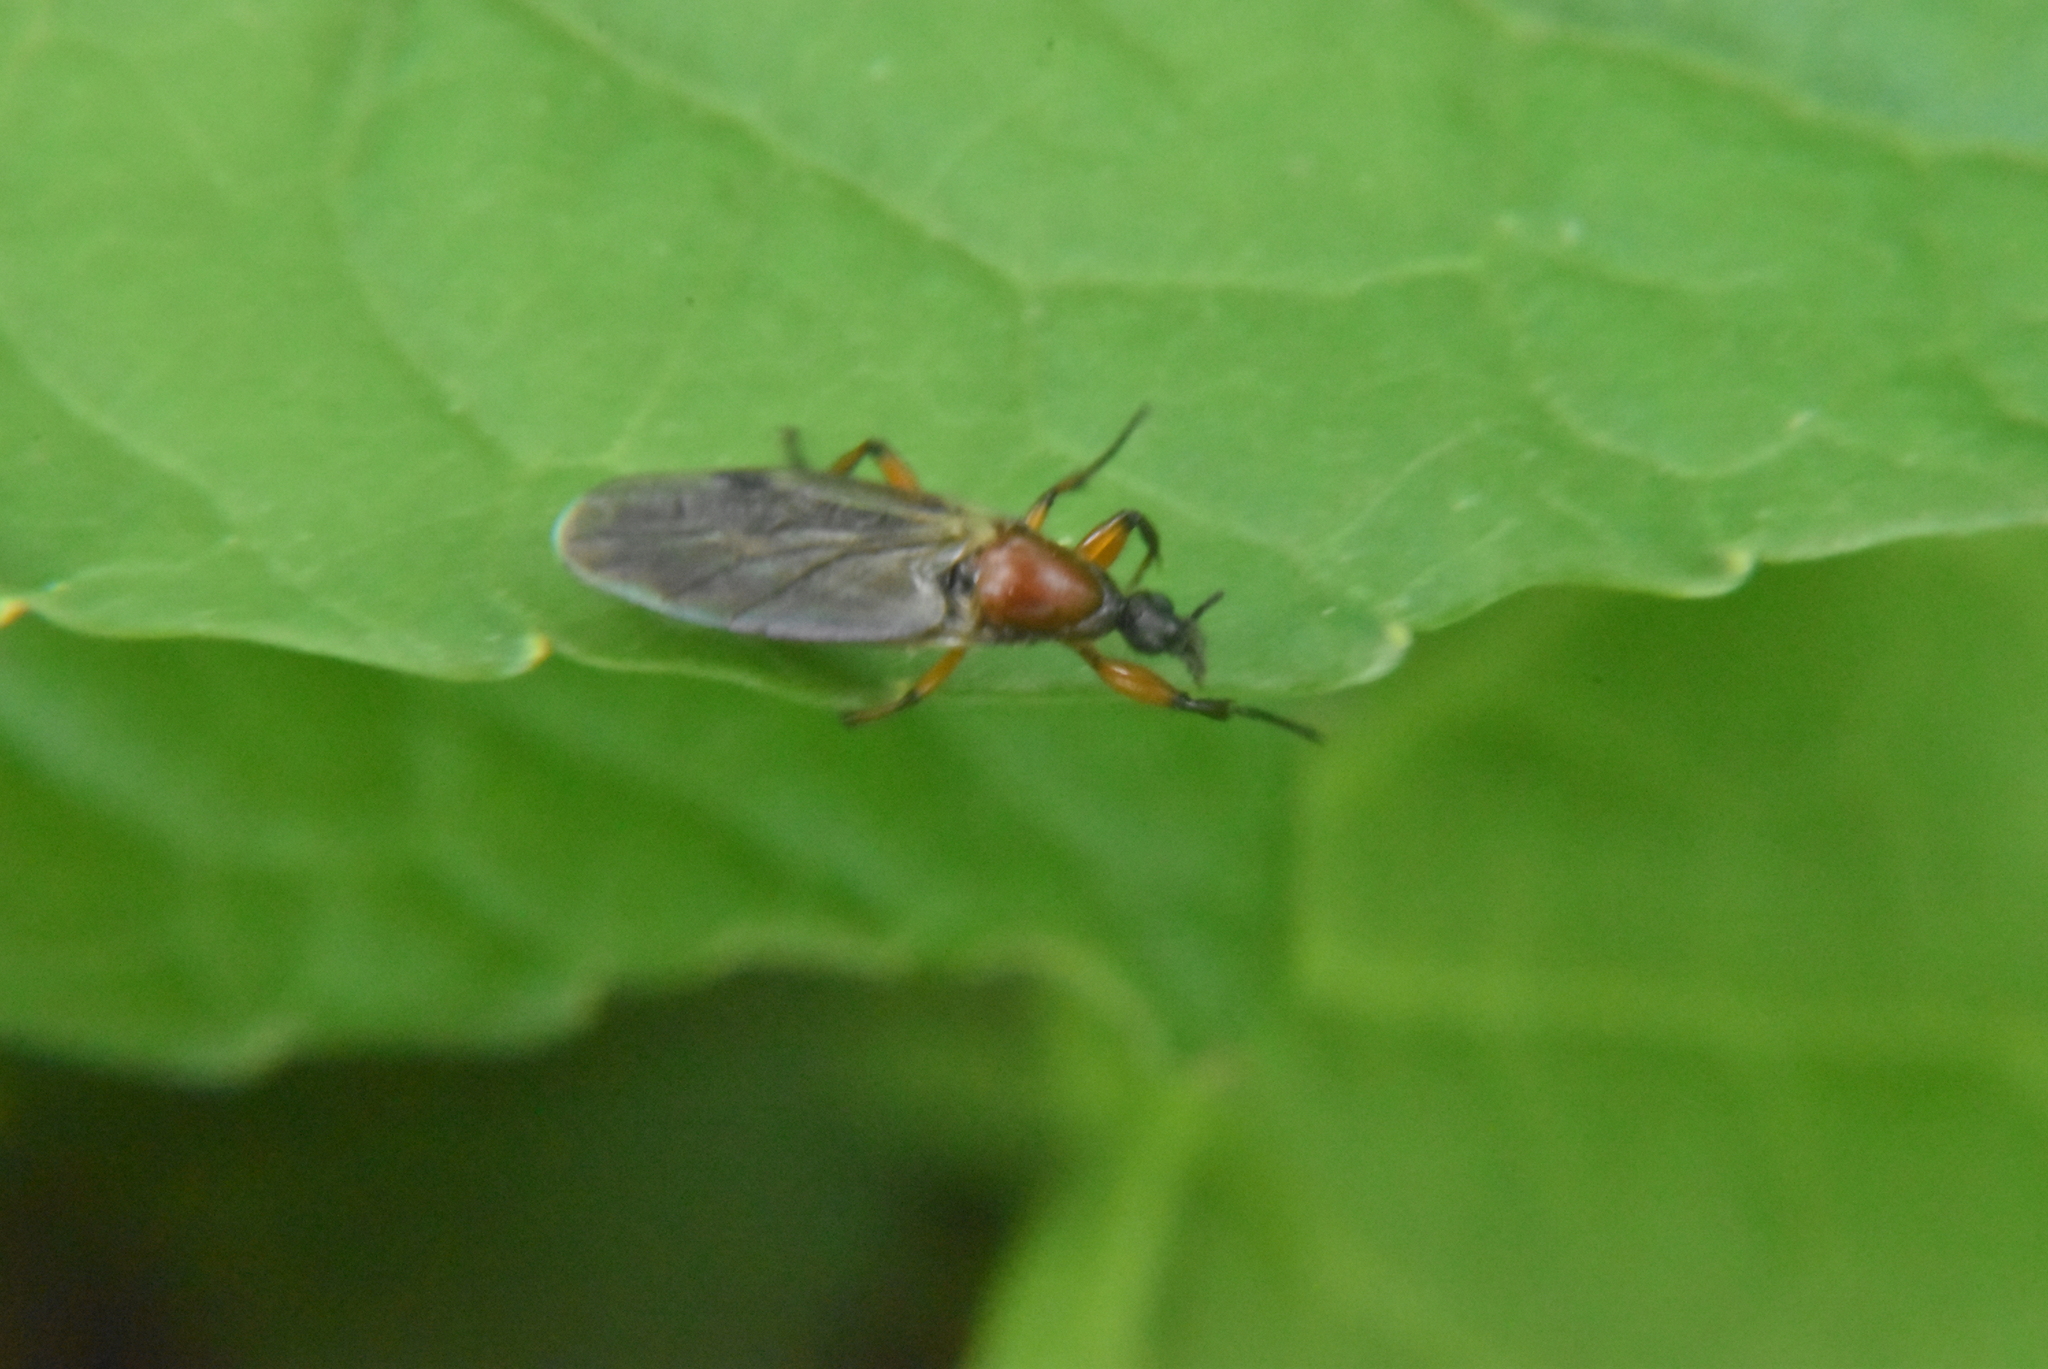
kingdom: Animalia
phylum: Arthropoda
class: Insecta
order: Diptera
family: Bibionidae
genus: Bibio
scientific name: Bibio articulatus
